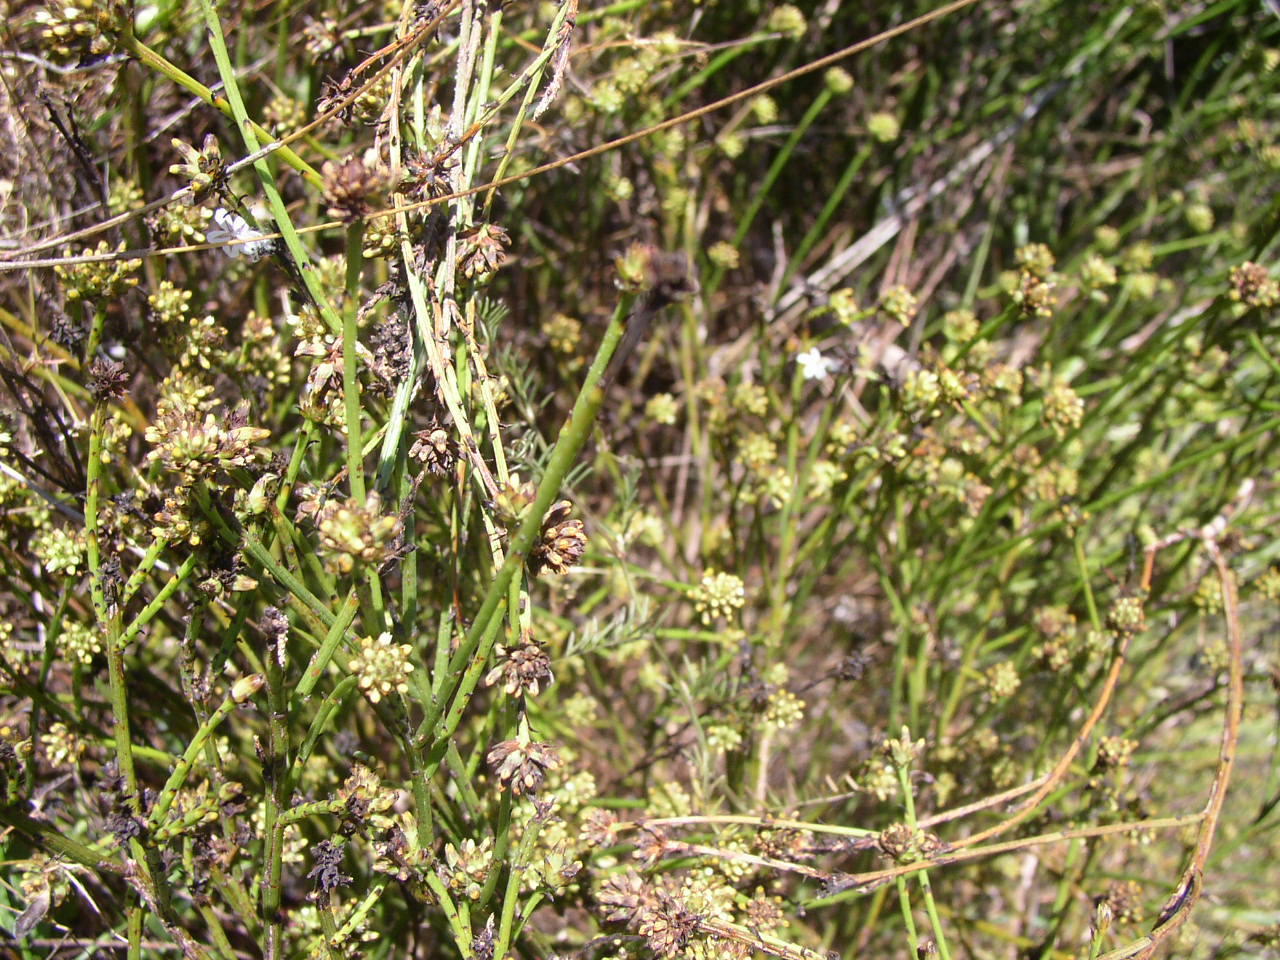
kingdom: Plantae
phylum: Tracheophyta
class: Magnoliopsida
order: Santalales
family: Thesiaceae
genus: Thesium
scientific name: Thesium capitatum
